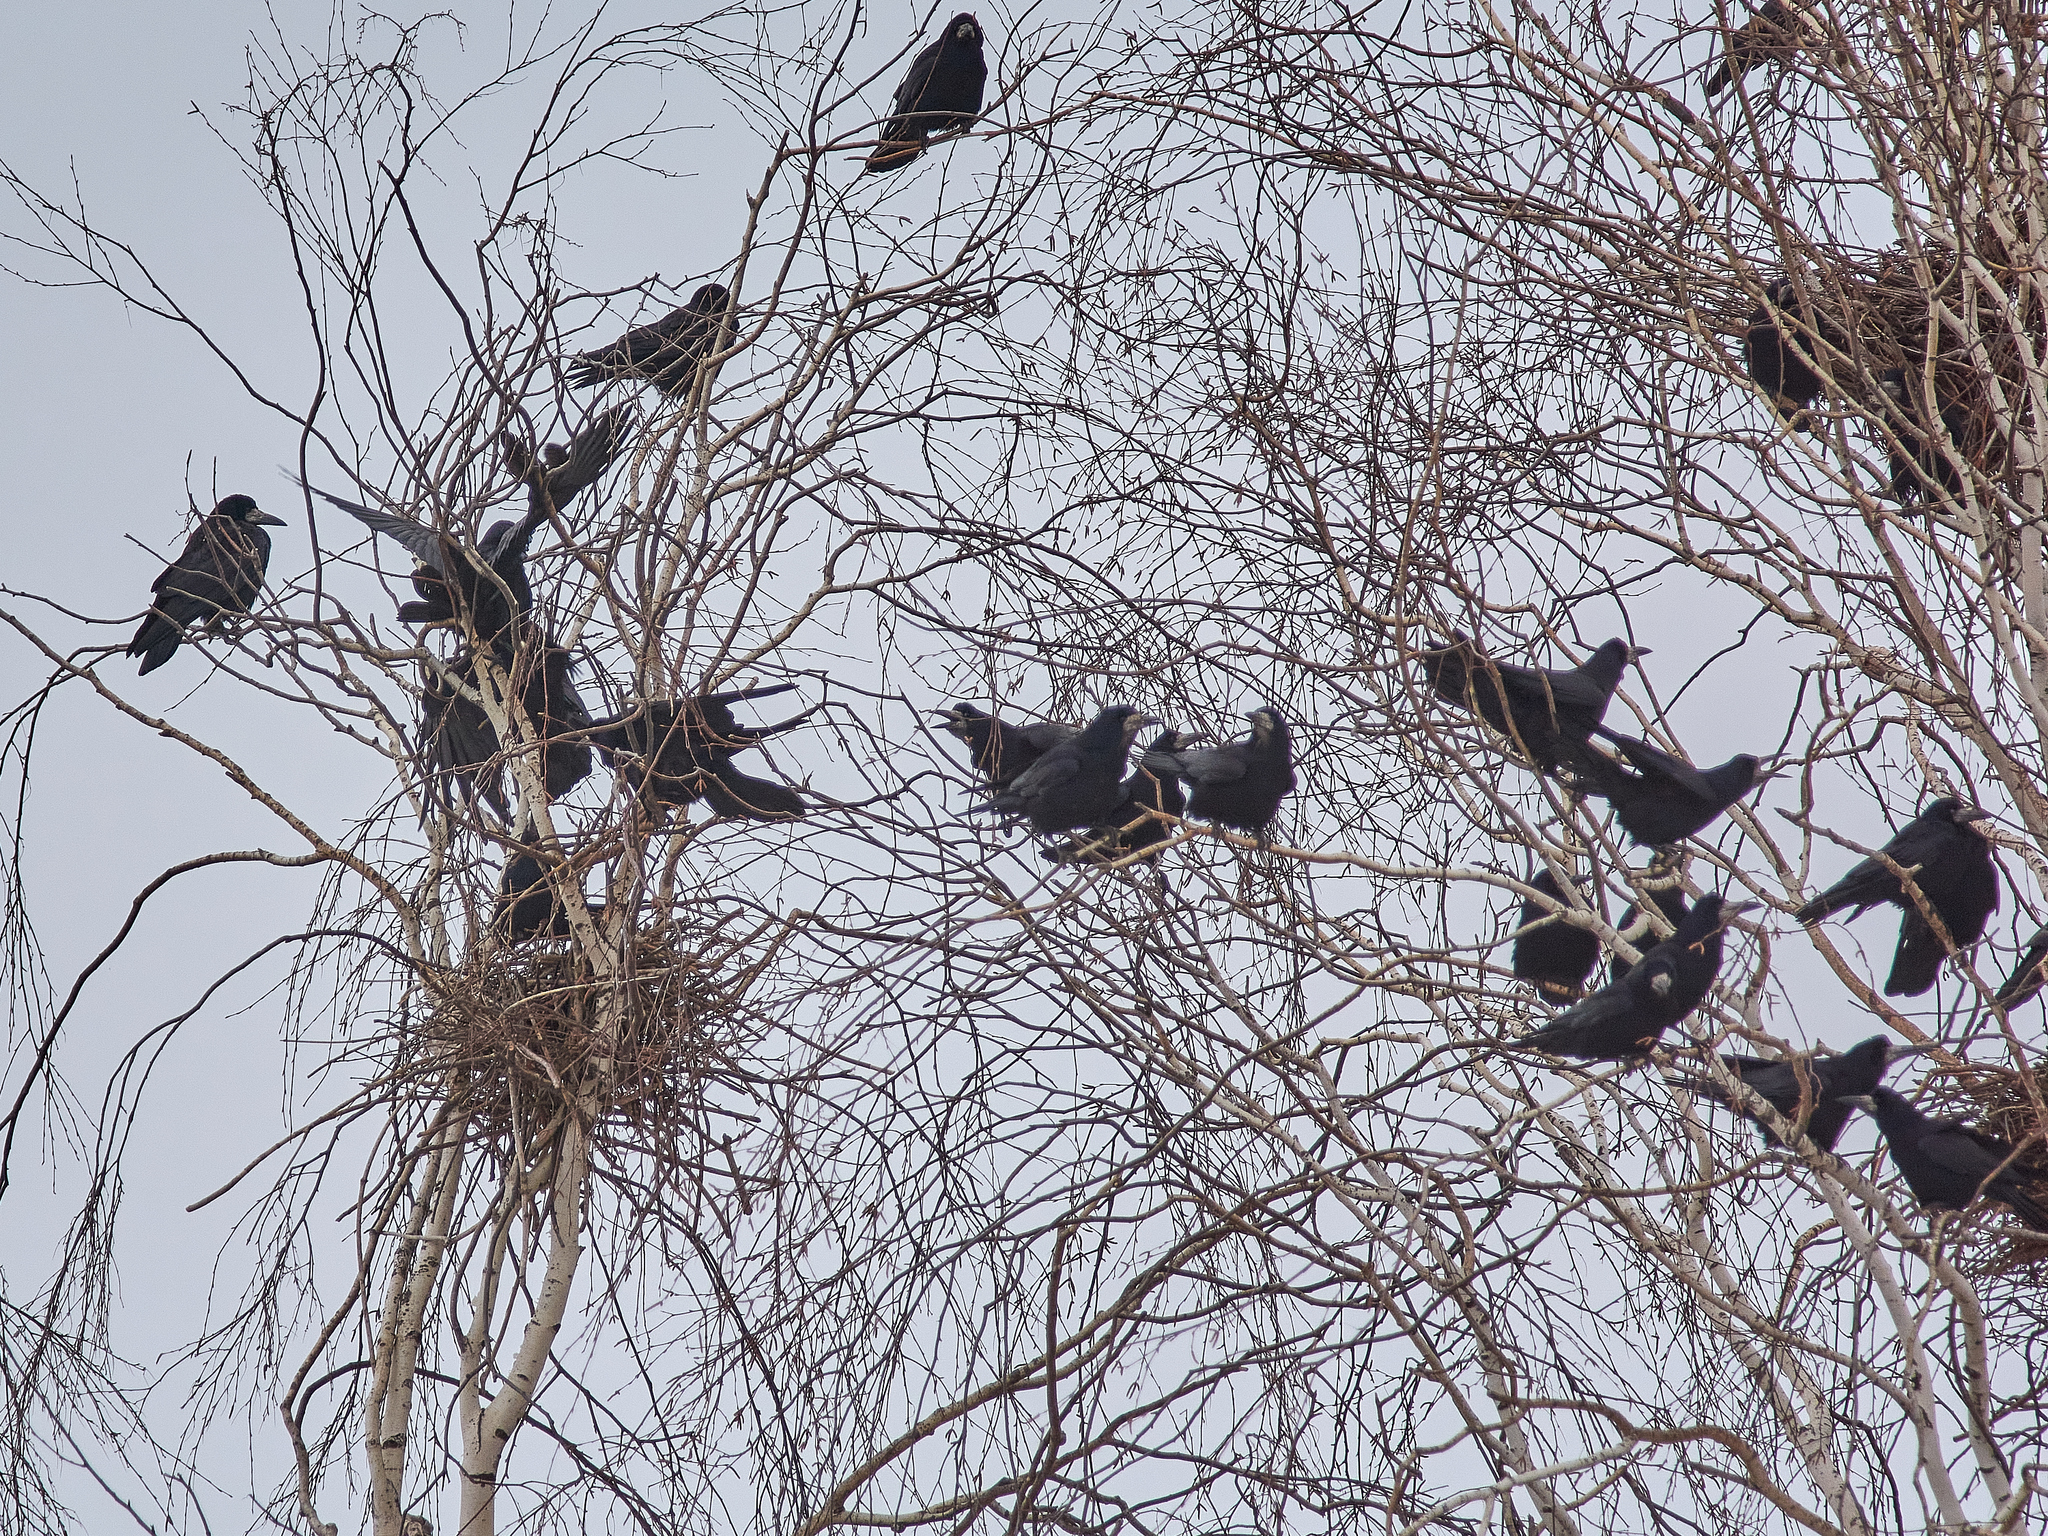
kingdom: Animalia
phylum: Chordata
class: Aves
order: Passeriformes
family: Corvidae
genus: Corvus
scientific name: Corvus frugilegus
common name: Rook
